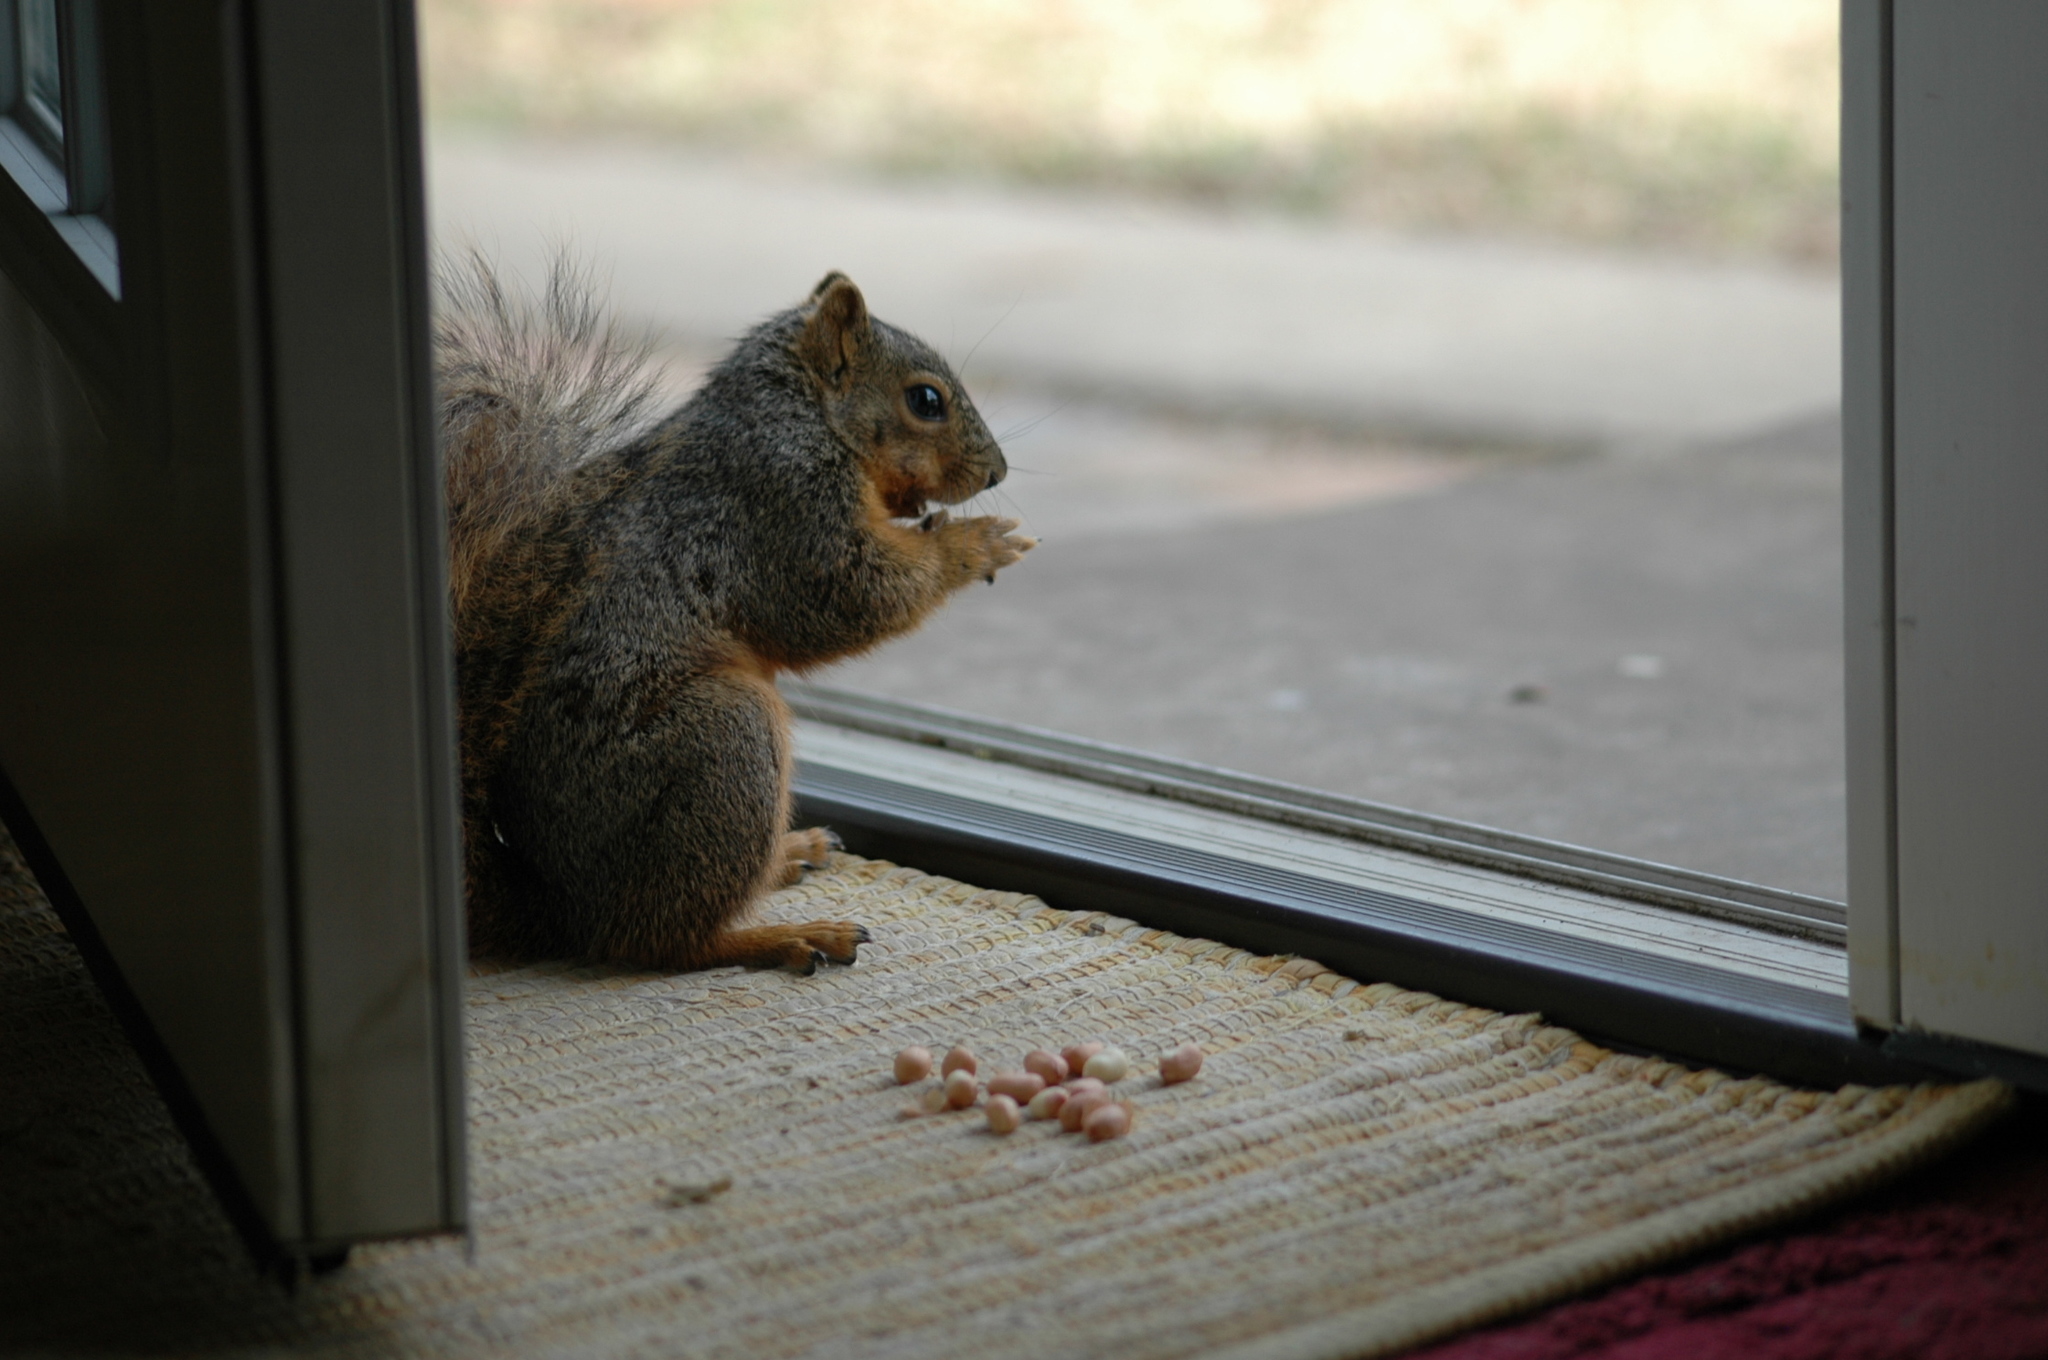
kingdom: Animalia
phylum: Chordata
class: Mammalia
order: Rodentia
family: Sciuridae
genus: Sciurus
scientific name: Sciurus niger
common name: Fox squirrel
